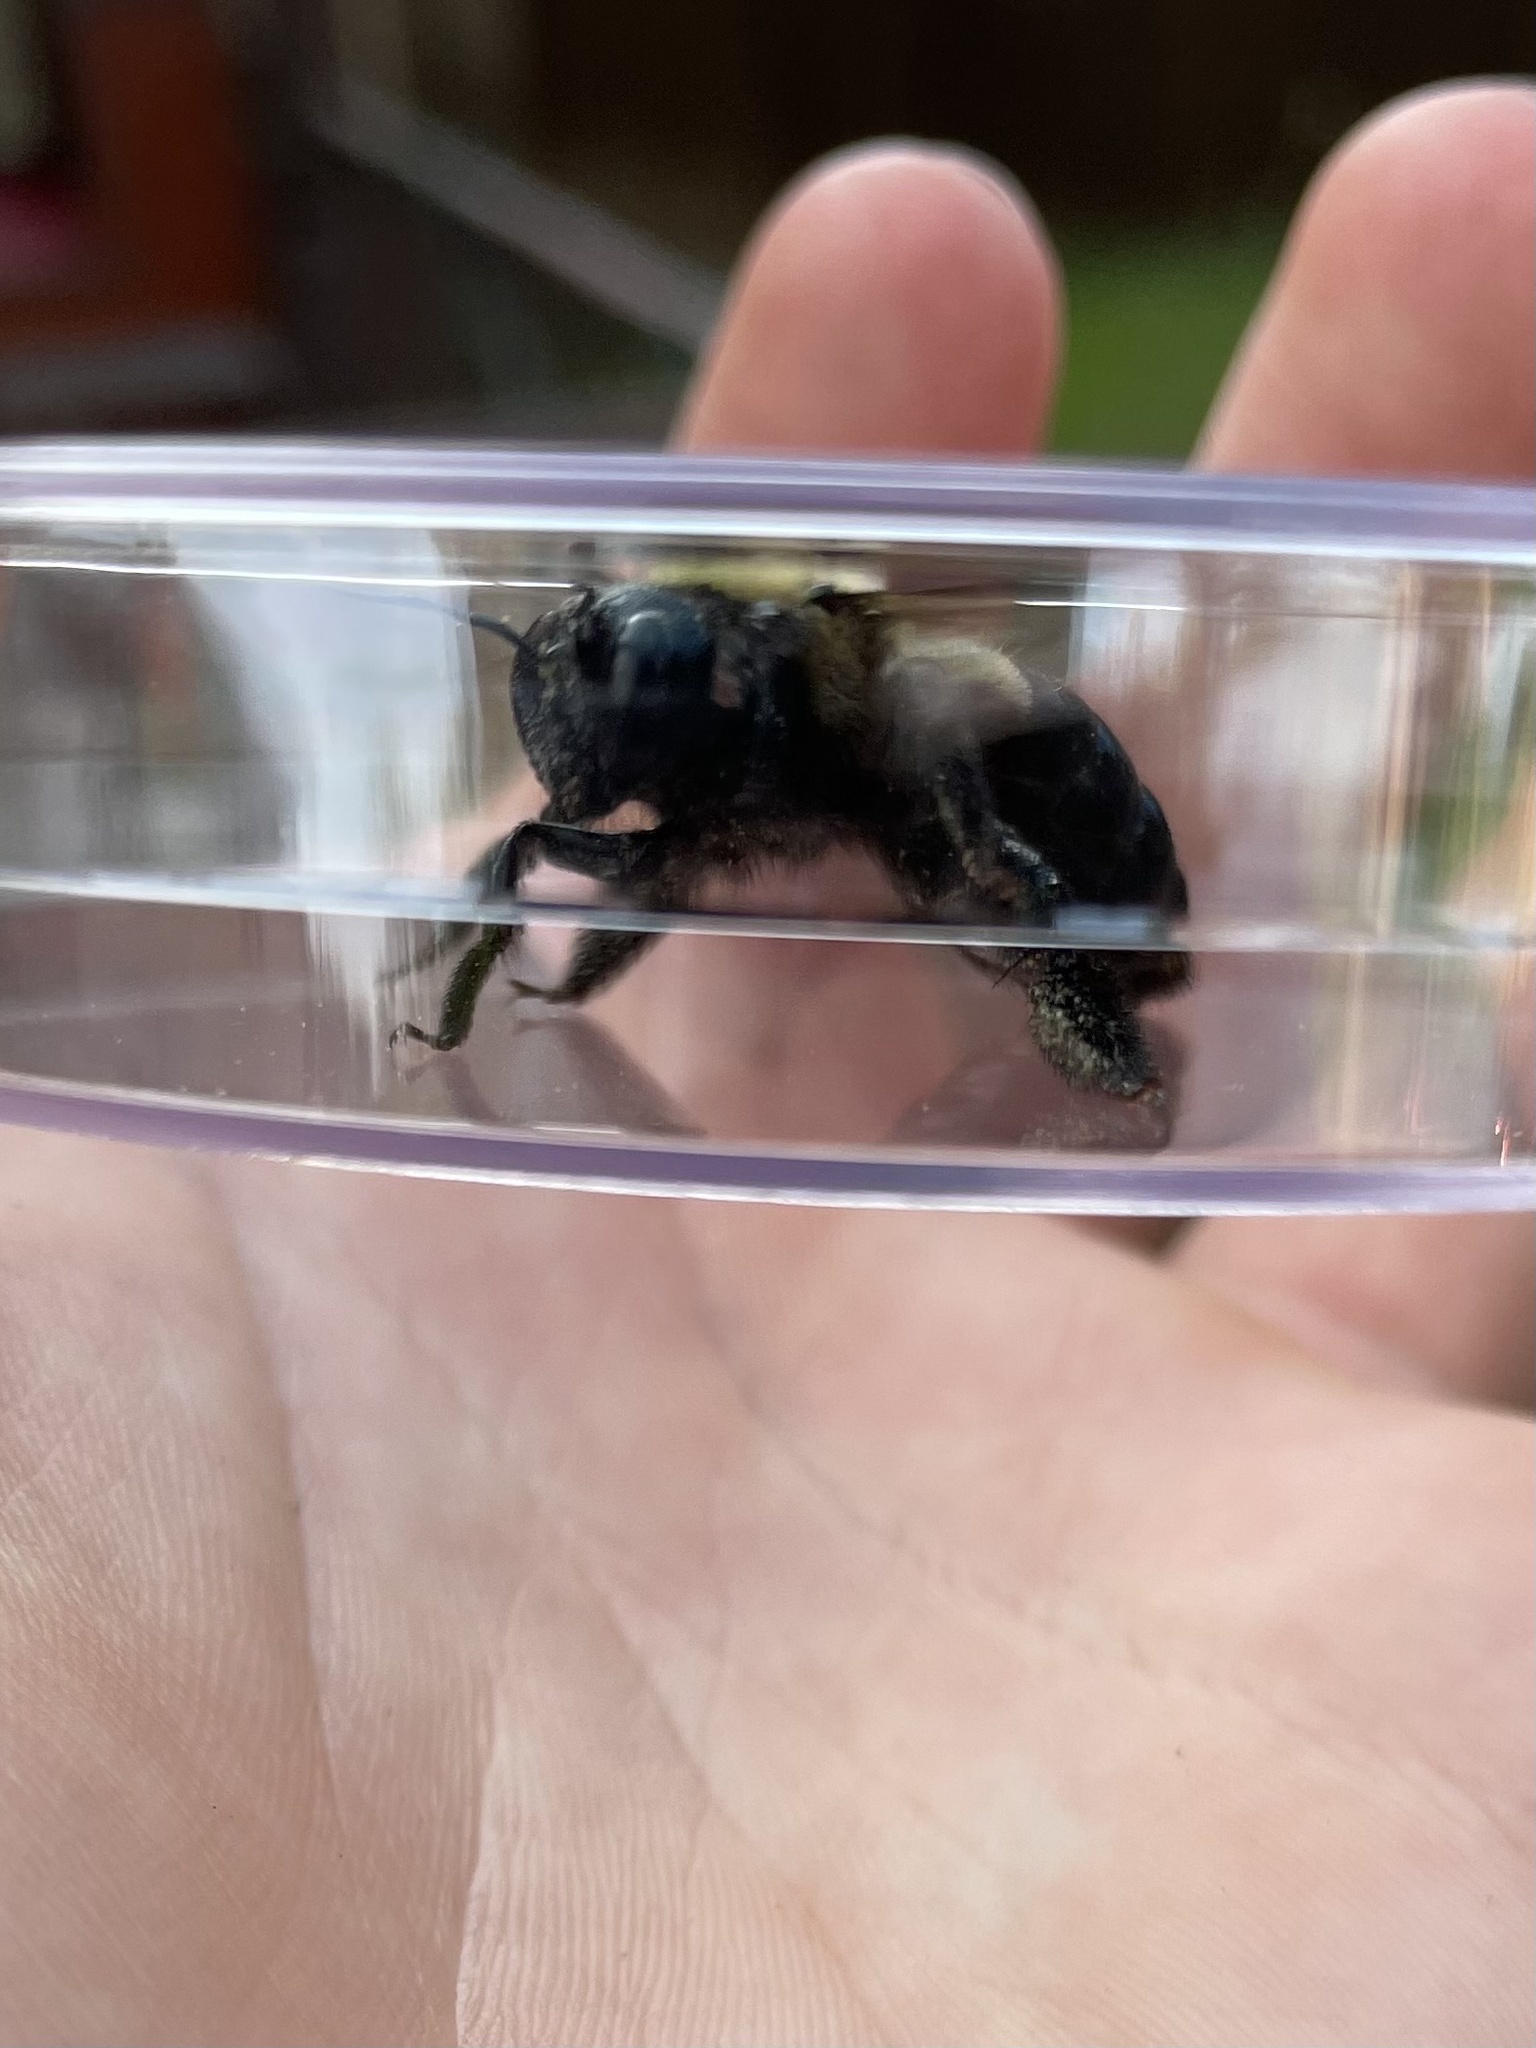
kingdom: Animalia
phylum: Arthropoda
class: Insecta
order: Hymenoptera
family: Apidae
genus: Xylocopa
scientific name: Xylocopa virginica
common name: Carpenter bee
